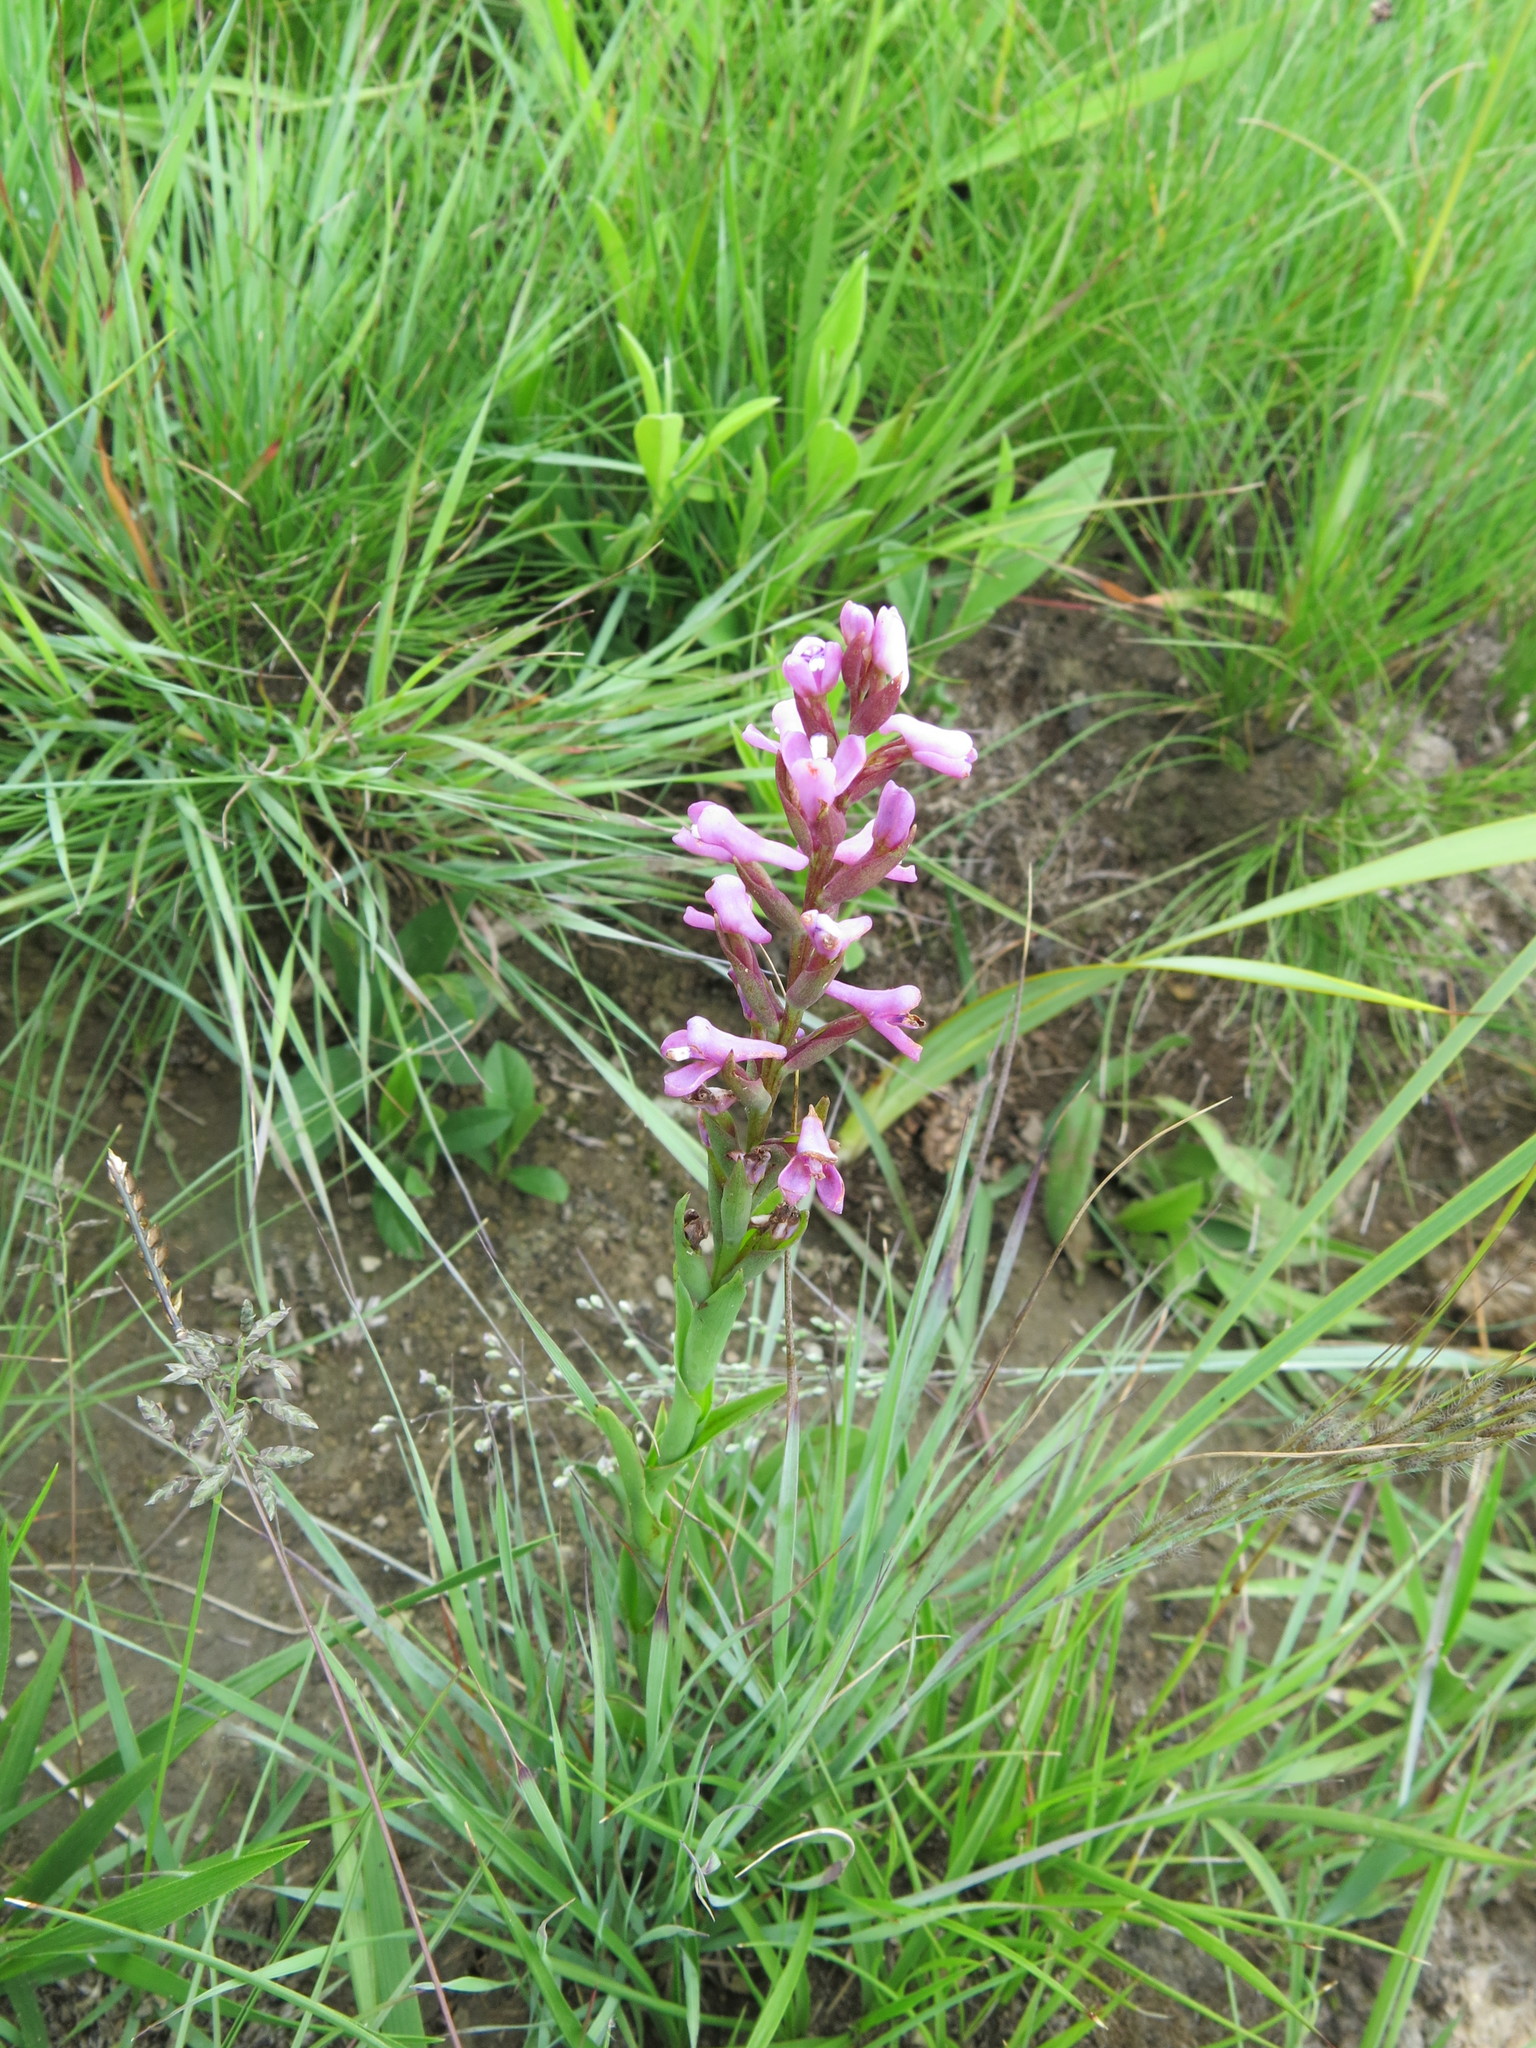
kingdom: Plantae
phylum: Tracheophyta
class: Liliopsida
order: Asparagales
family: Orchidaceae
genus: Disa
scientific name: Disa stachyoides
